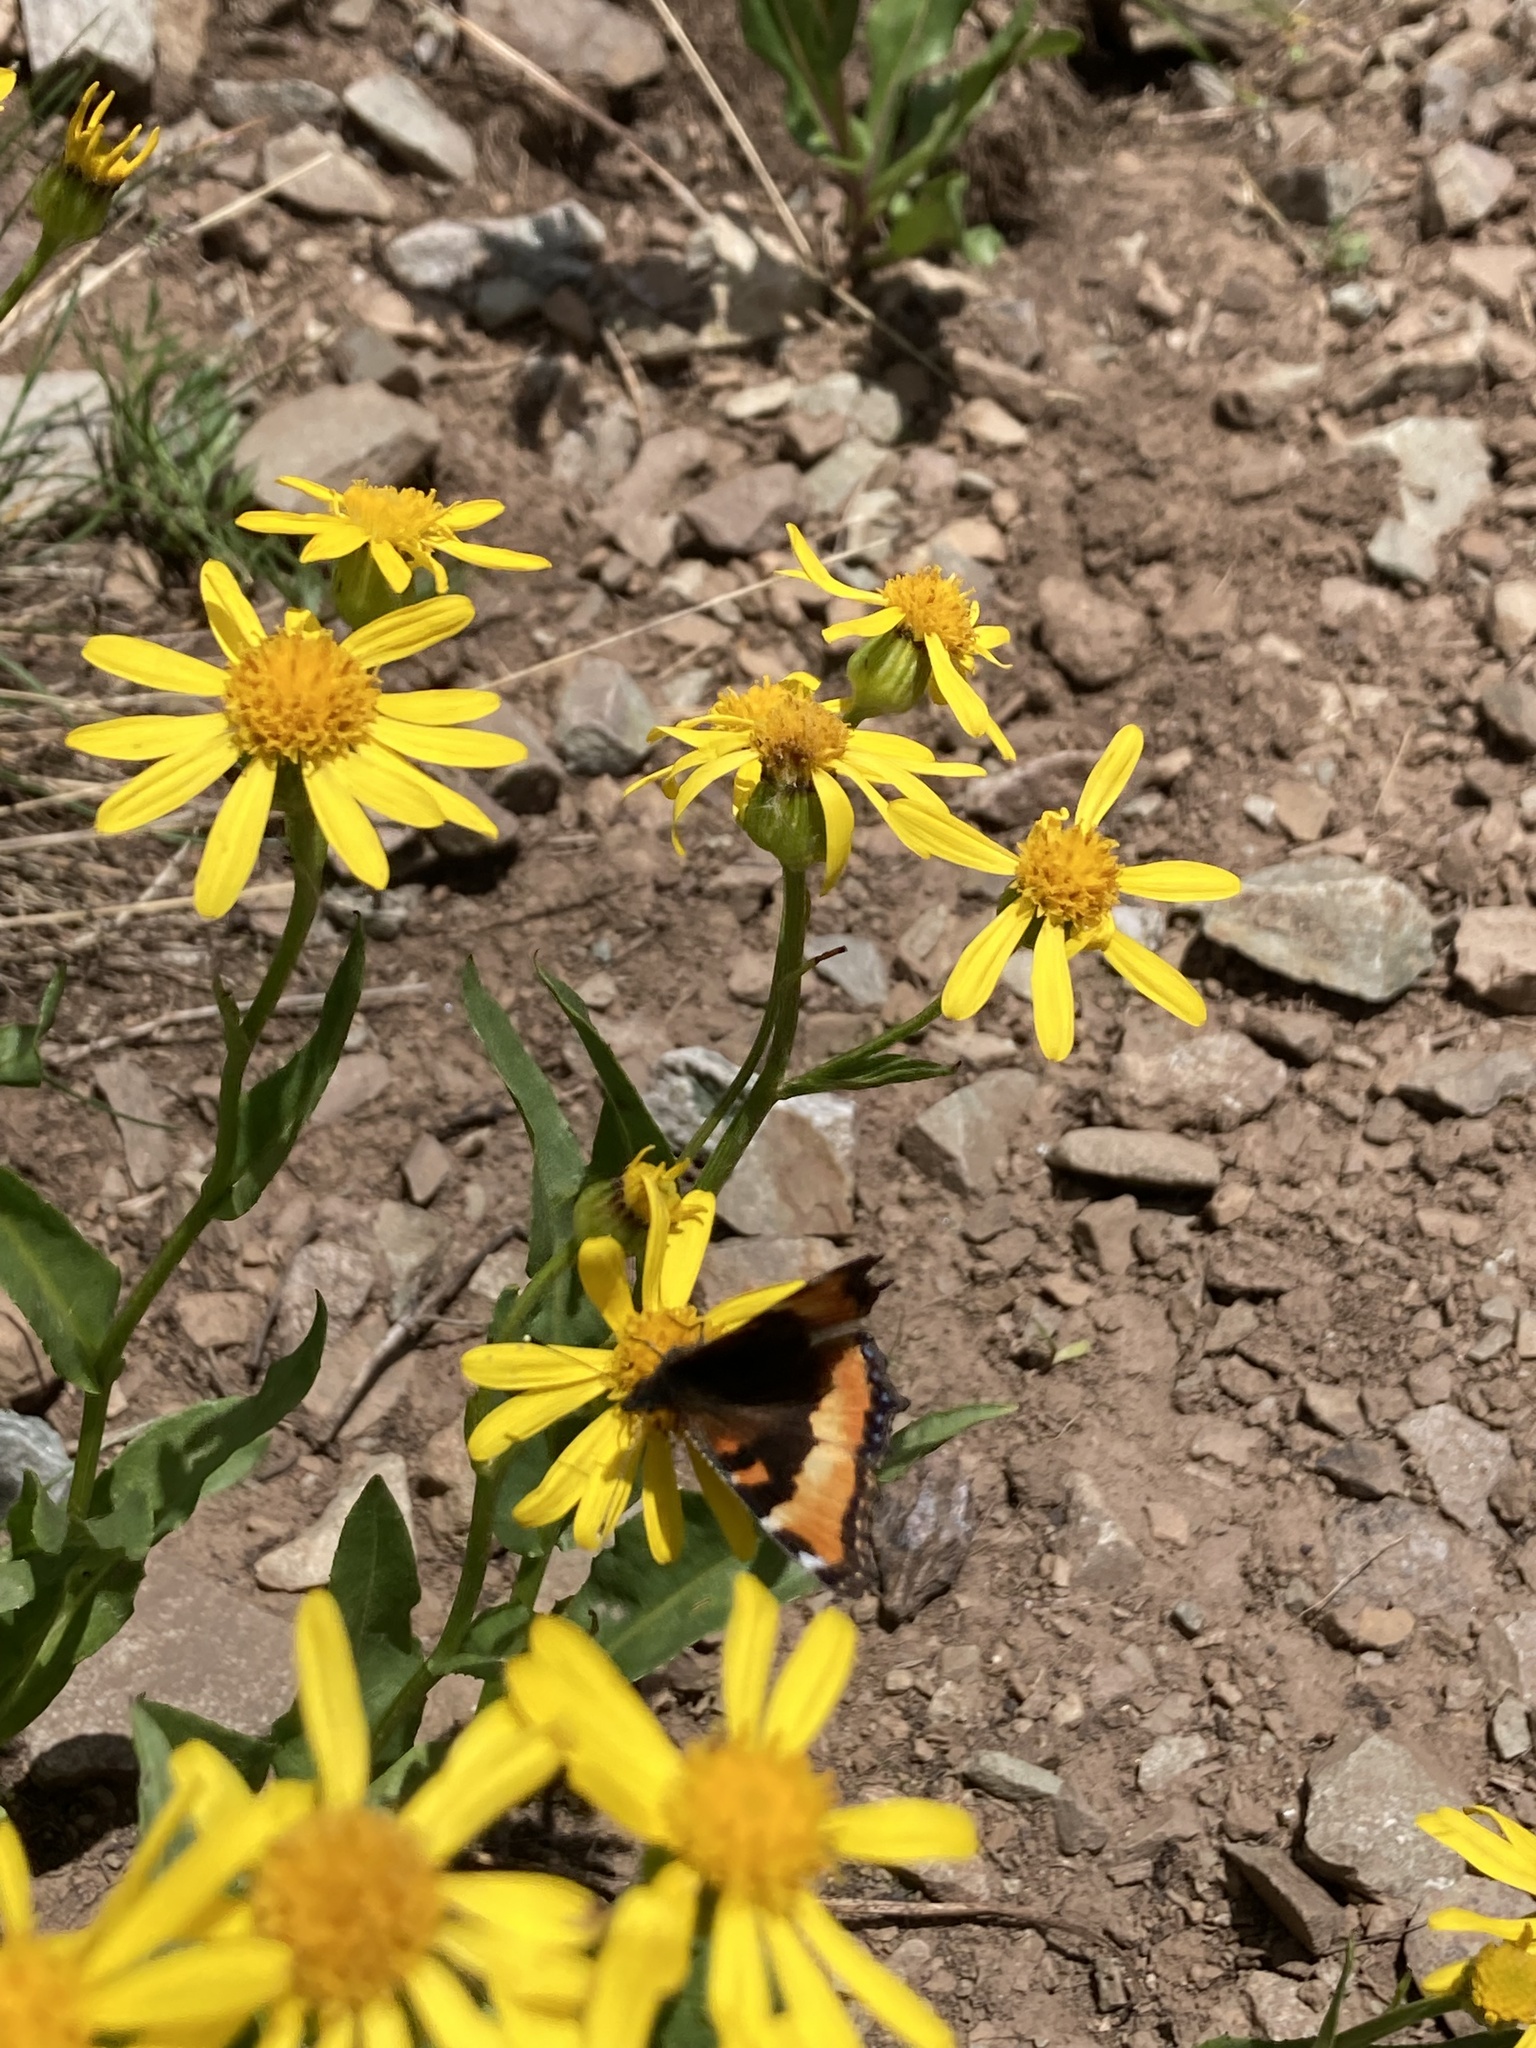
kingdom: Animalia
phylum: Arthropoda
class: Insecta
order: Lepidoptera
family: Nymphalidae
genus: Aglais
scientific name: Aglais milberti
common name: Milbert's tortoiseshell
